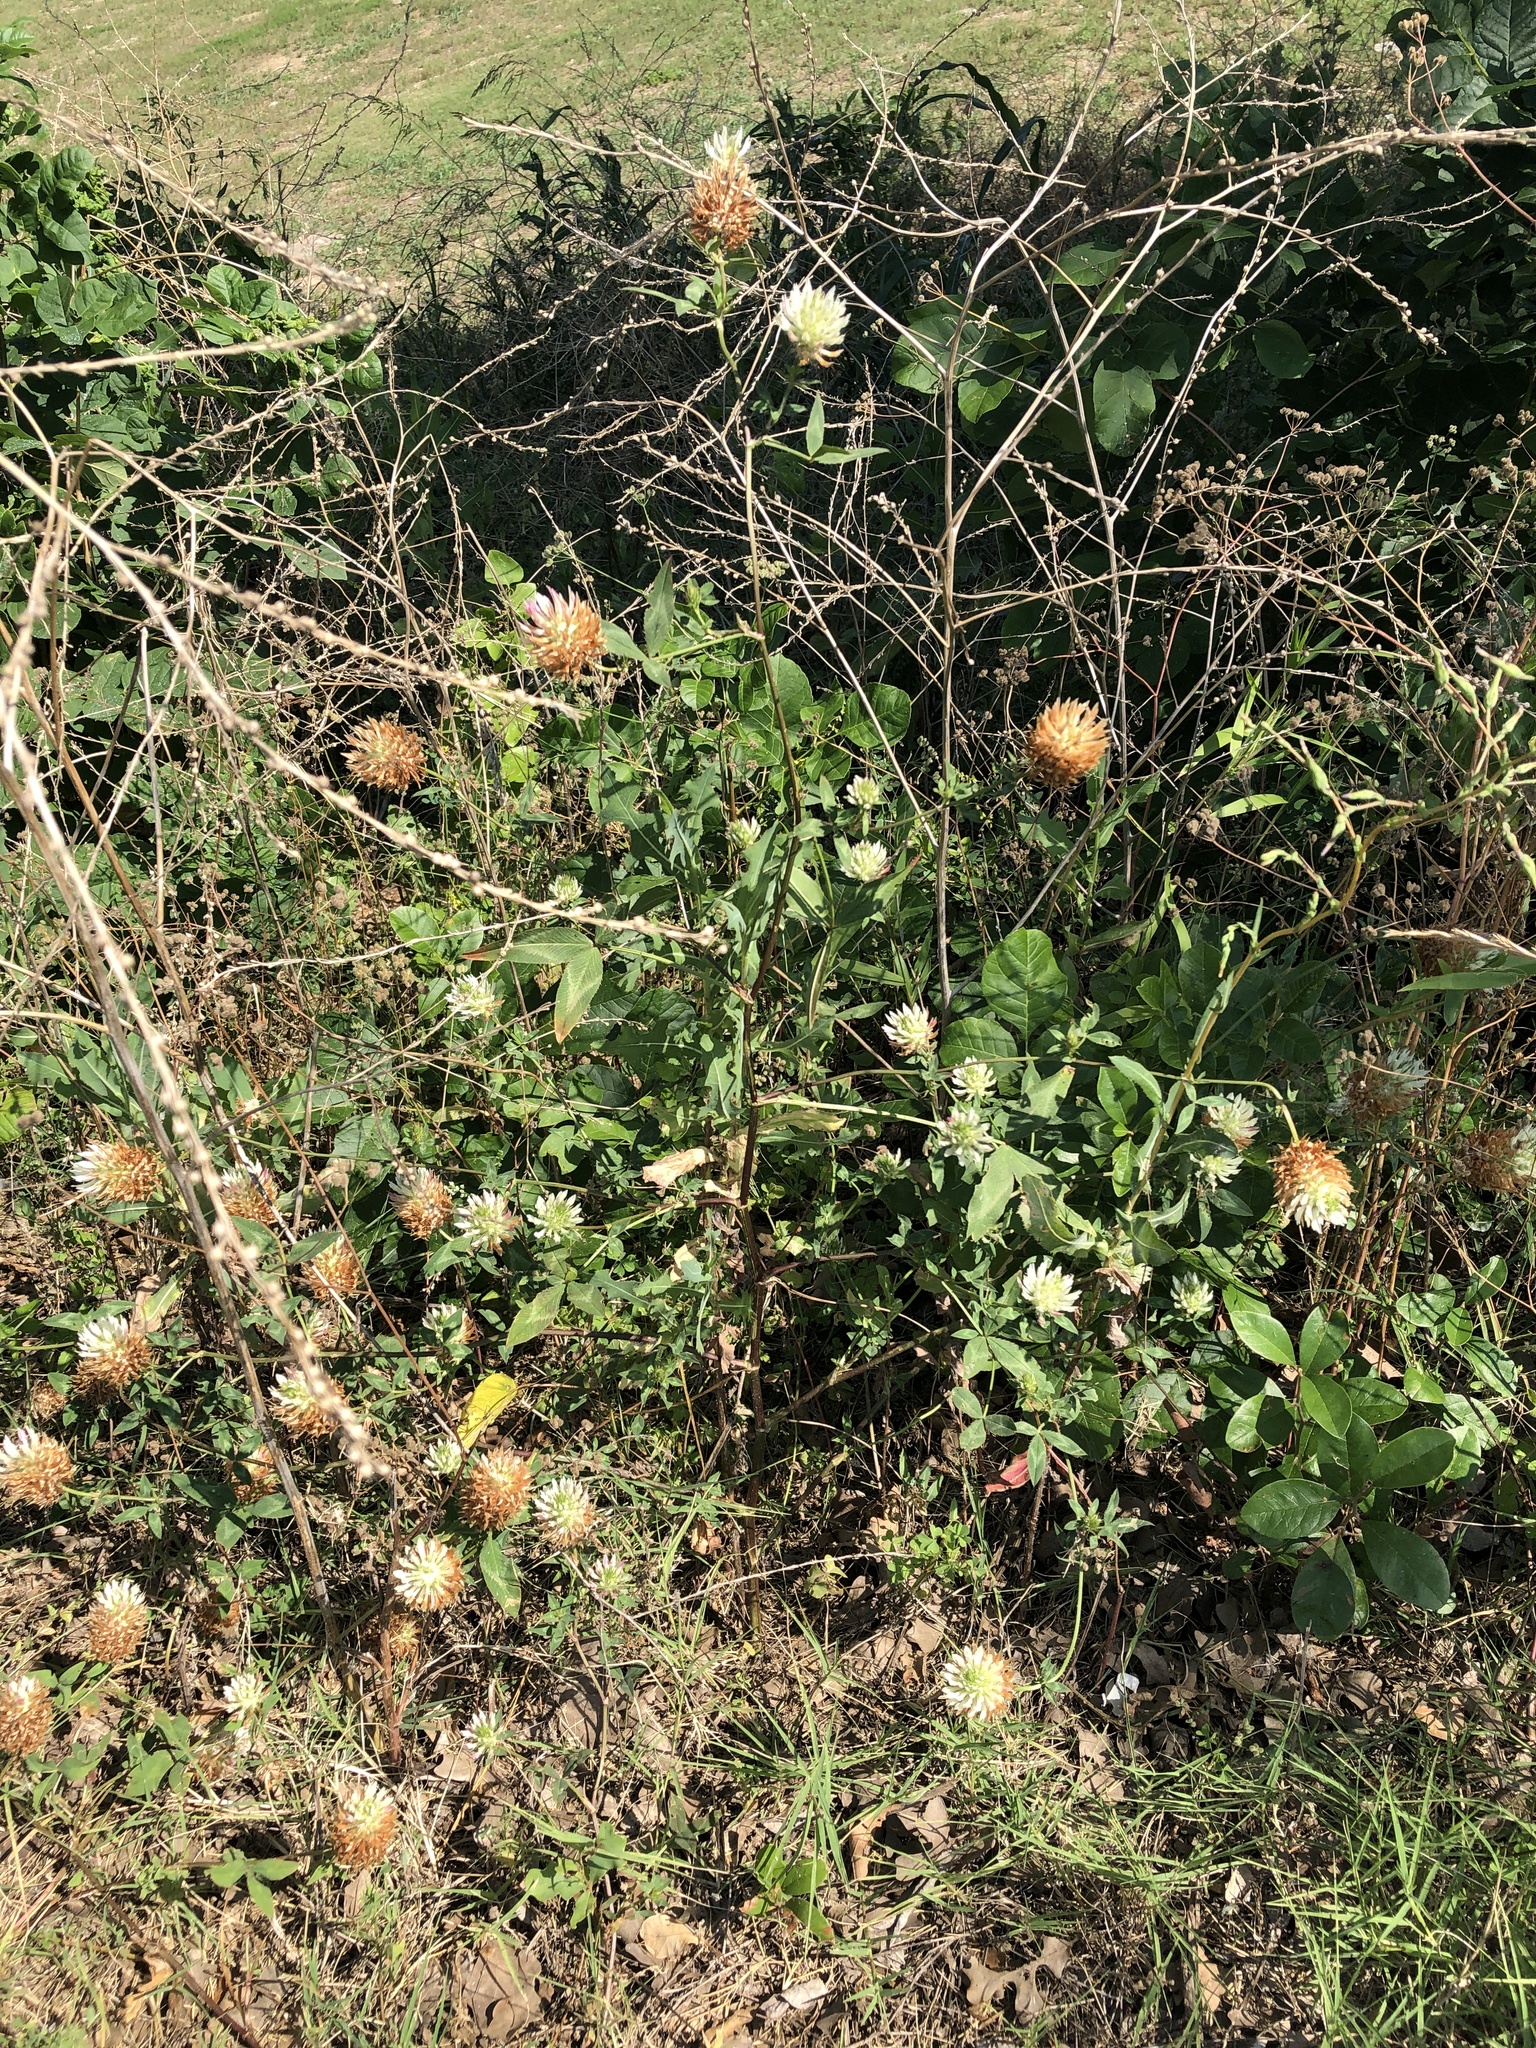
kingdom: Plantae
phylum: Tracheophyta
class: Magnoliopsida
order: Fabales
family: Fabaceae
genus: Trifolium
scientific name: Trifolium vesiculosum
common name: Arrowleaf clover
